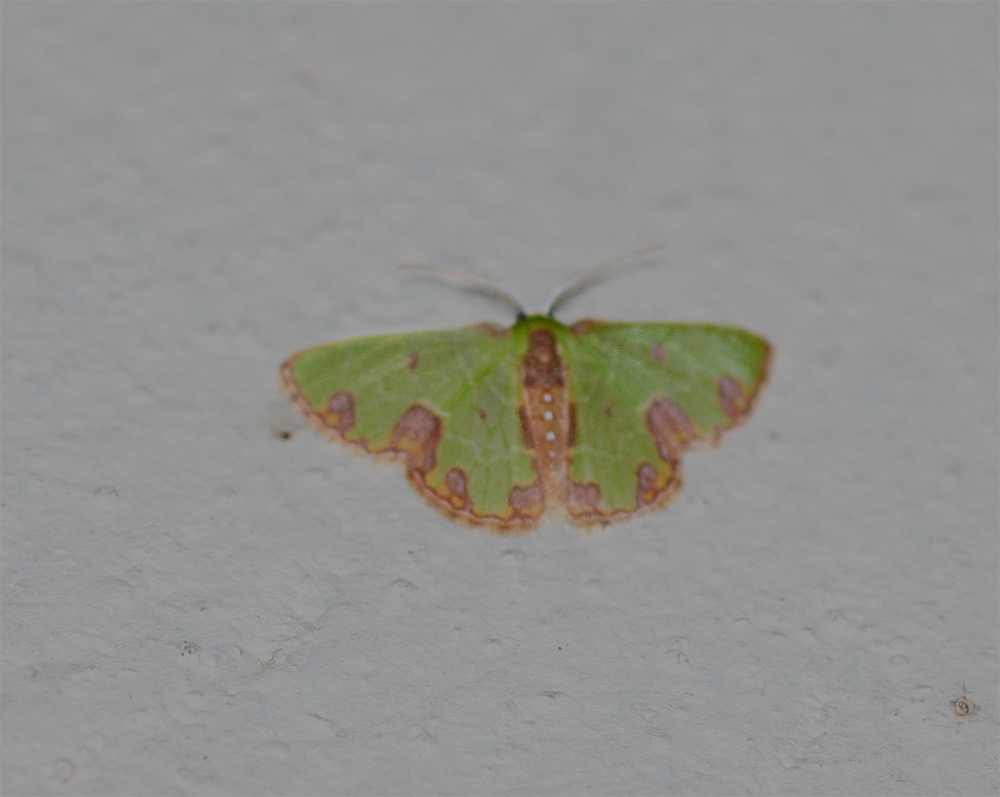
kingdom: Animalia
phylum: Arthropoda
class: Insecta
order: Lepidoptera
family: Geometridae
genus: Synchlora
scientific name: Synchlora gerularia
